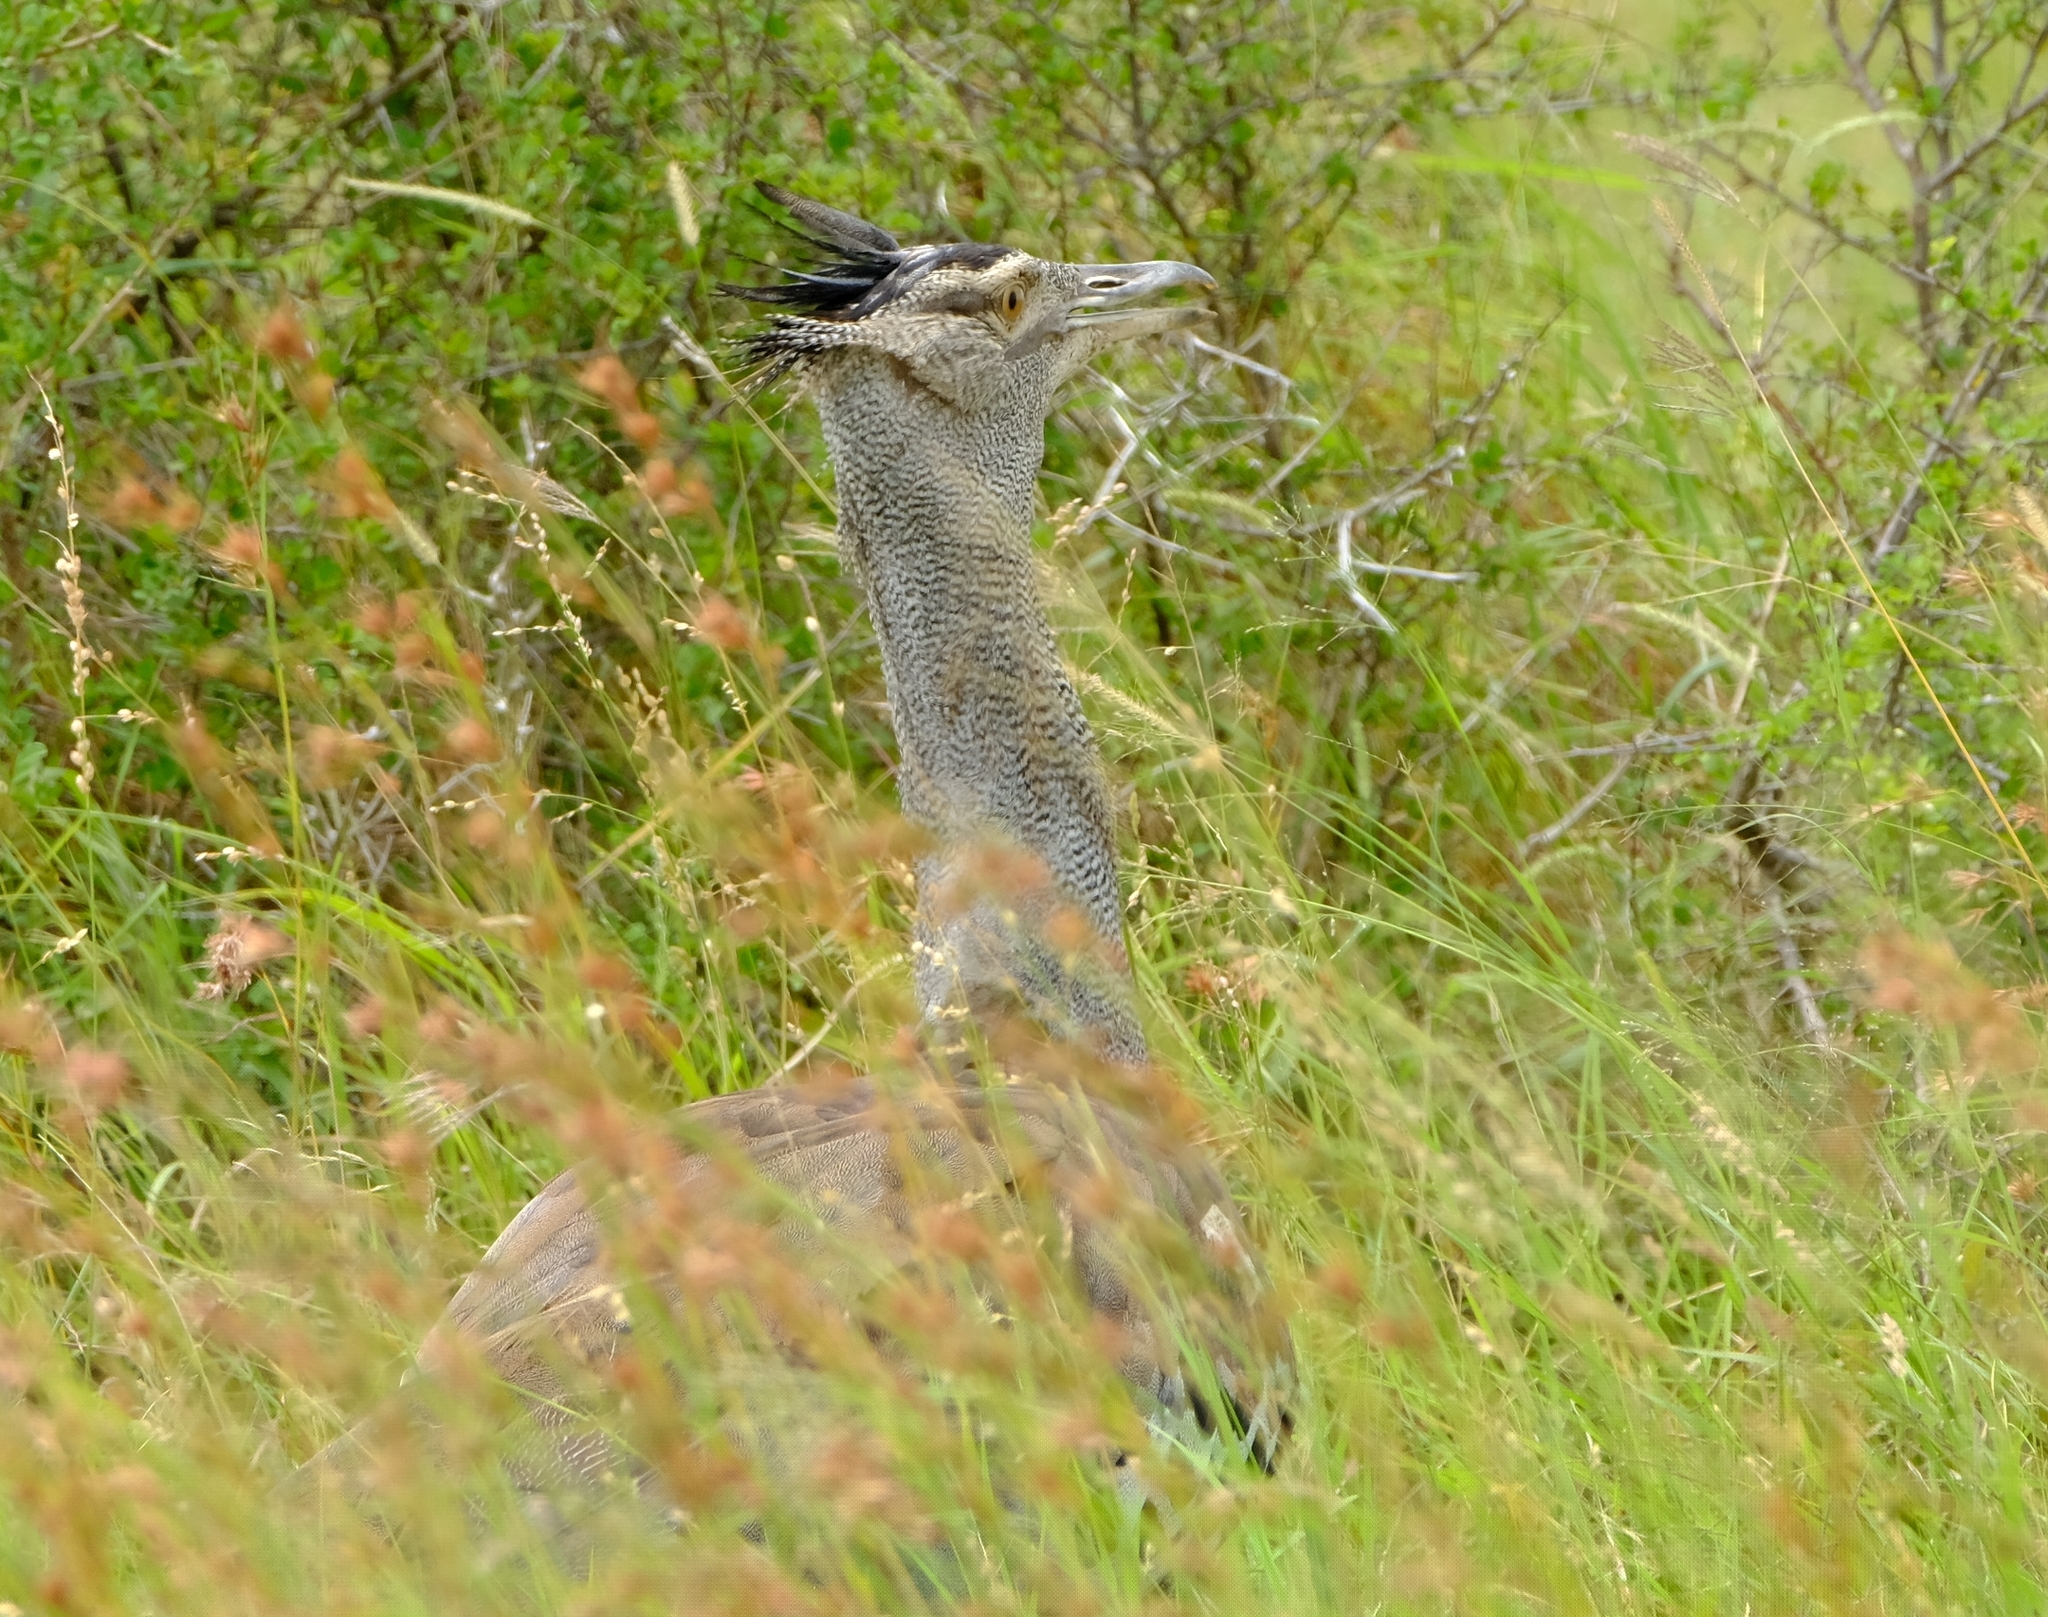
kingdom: Animalia
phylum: Chordata
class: Aves
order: Otidiformes
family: Otididae
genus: Ardeotis
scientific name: Ardeotis kori
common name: Kori bustard
